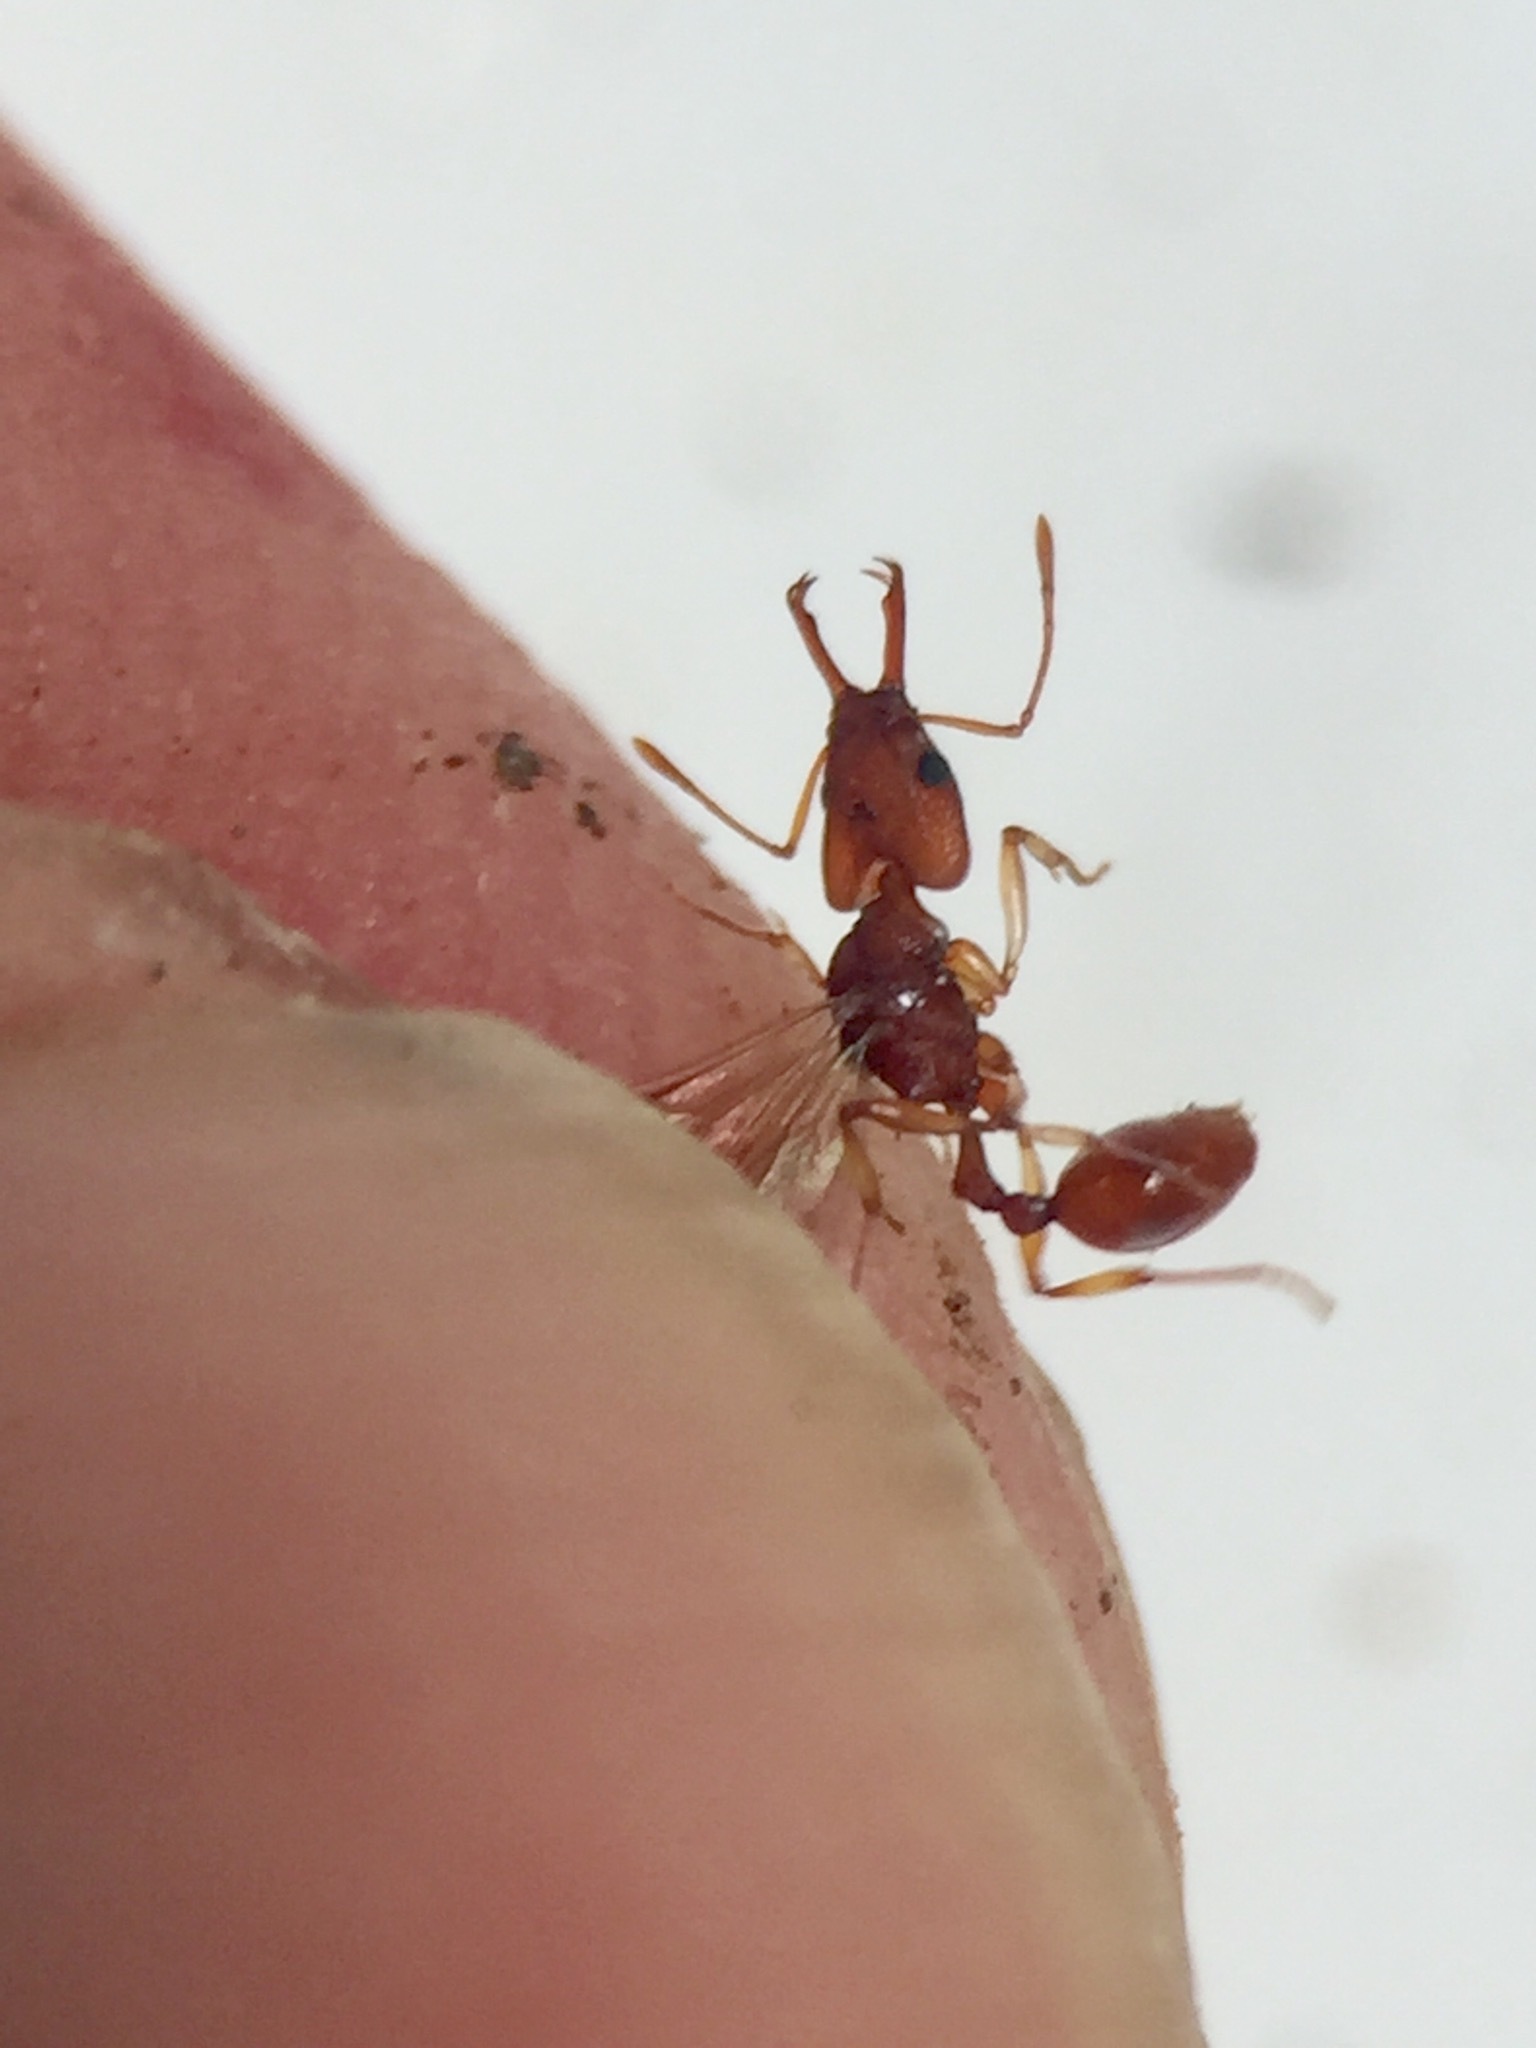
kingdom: Animalia
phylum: Arthropoda
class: Insecta
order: Hymenoptera
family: Formicidae
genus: Orectognathus
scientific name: Orectognathus antennatus
